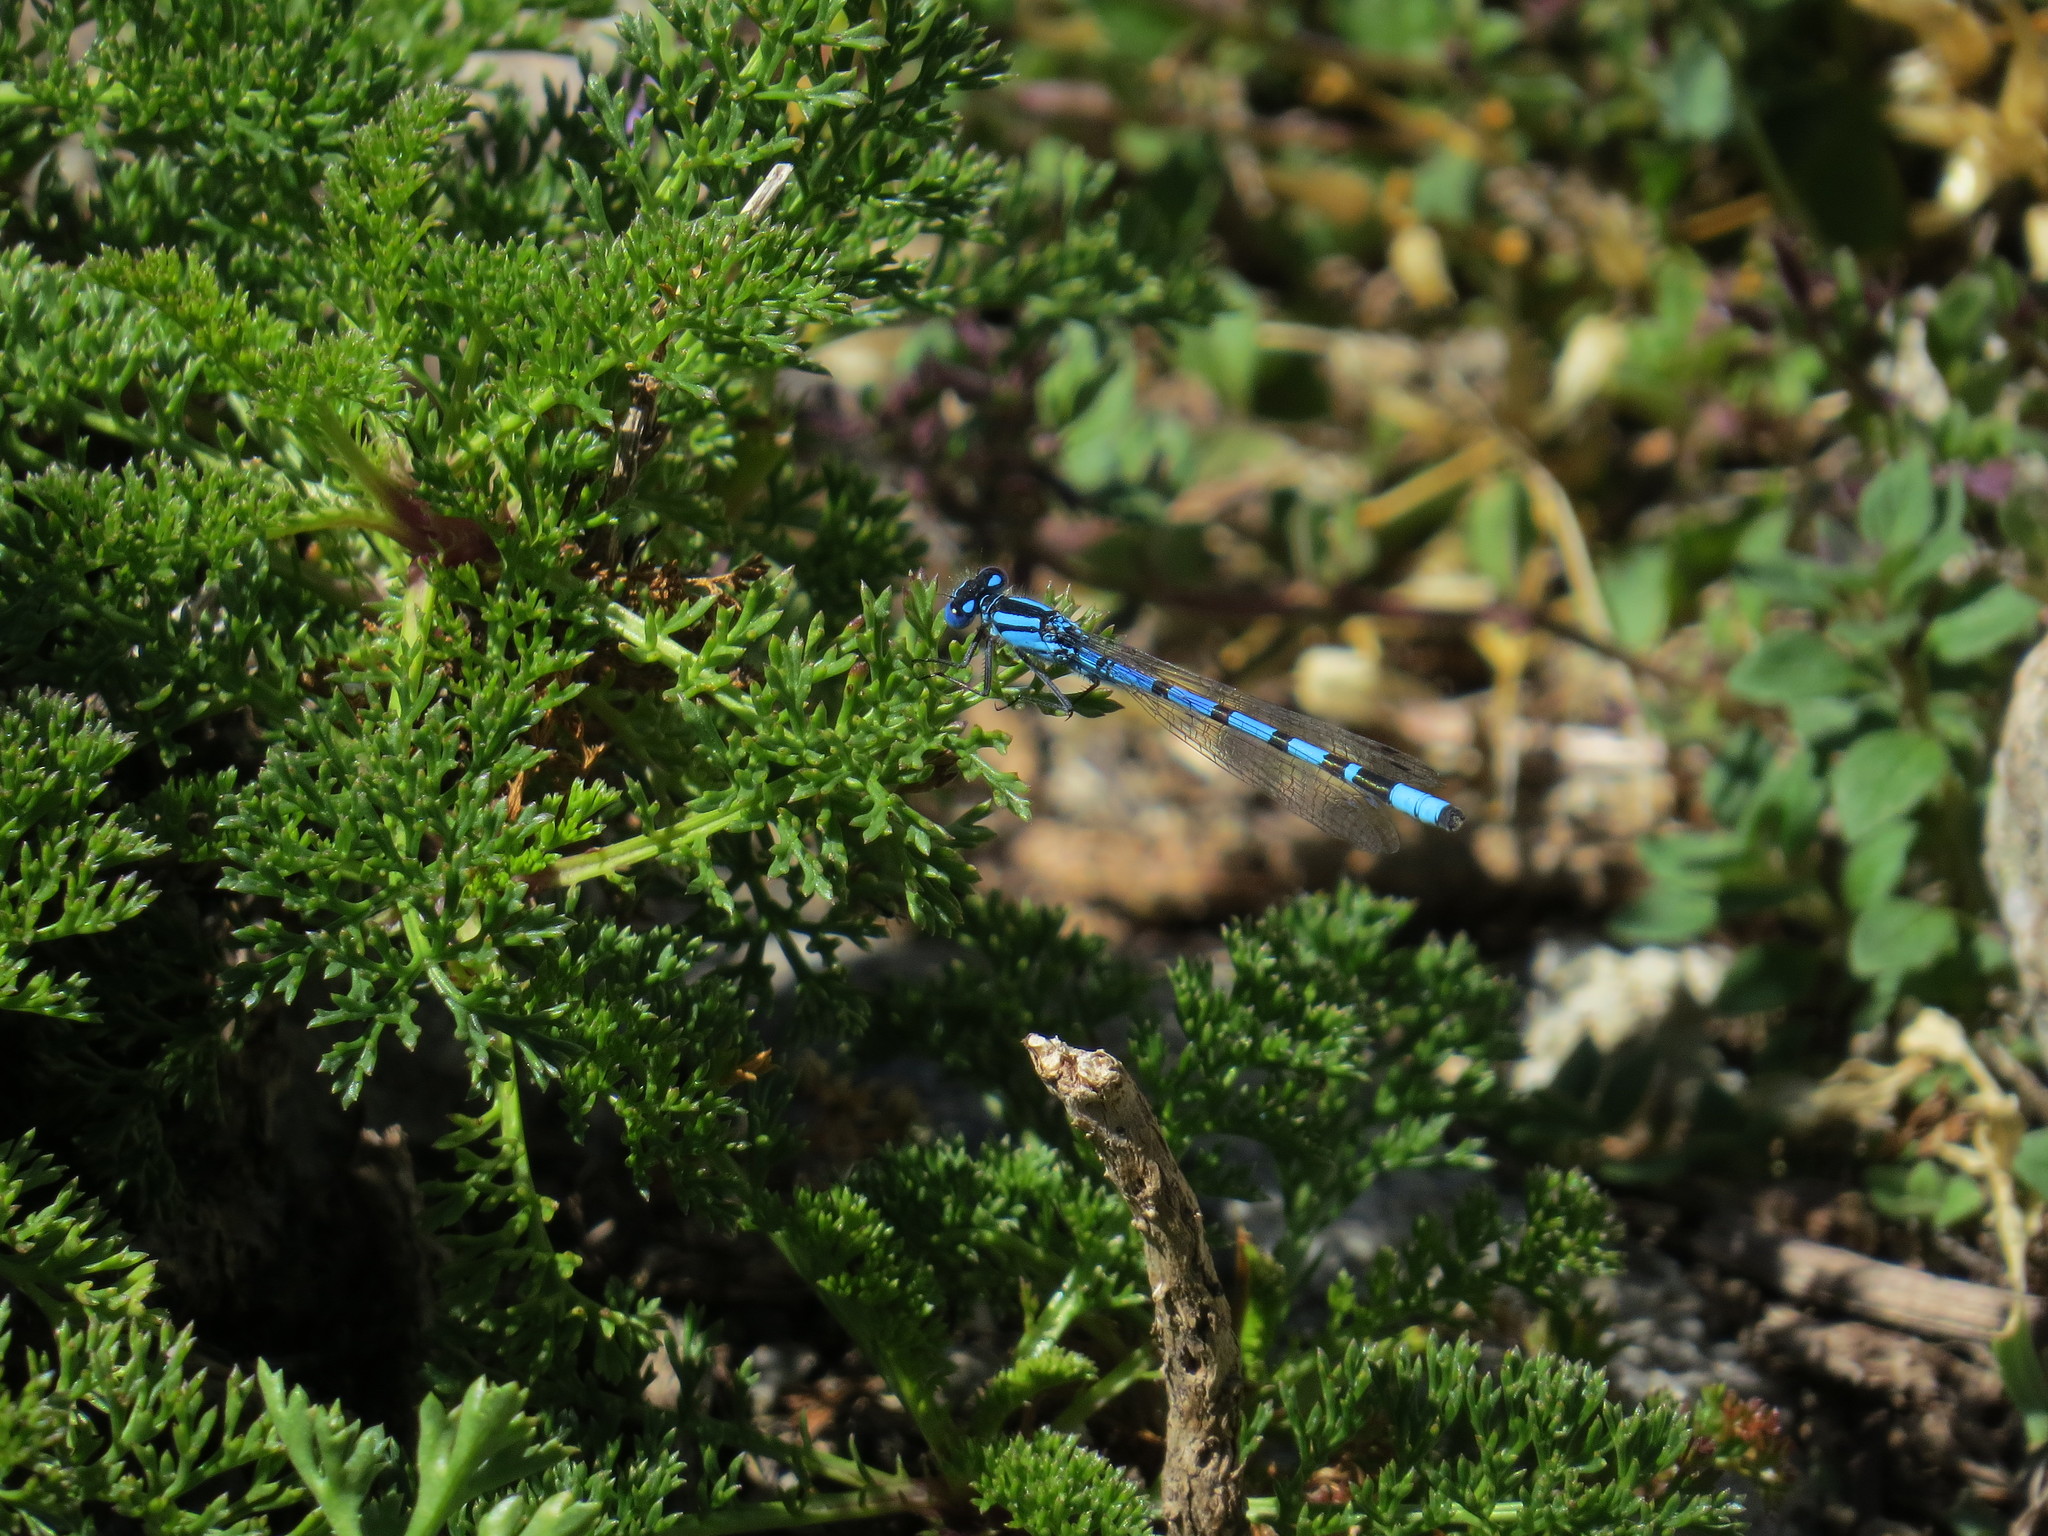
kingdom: Animalia
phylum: Arthropoda
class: Insecta
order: Odonata
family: Coenagrionidae
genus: Enallagma
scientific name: Enallagma cyathigerum
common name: Common blue damselfly
